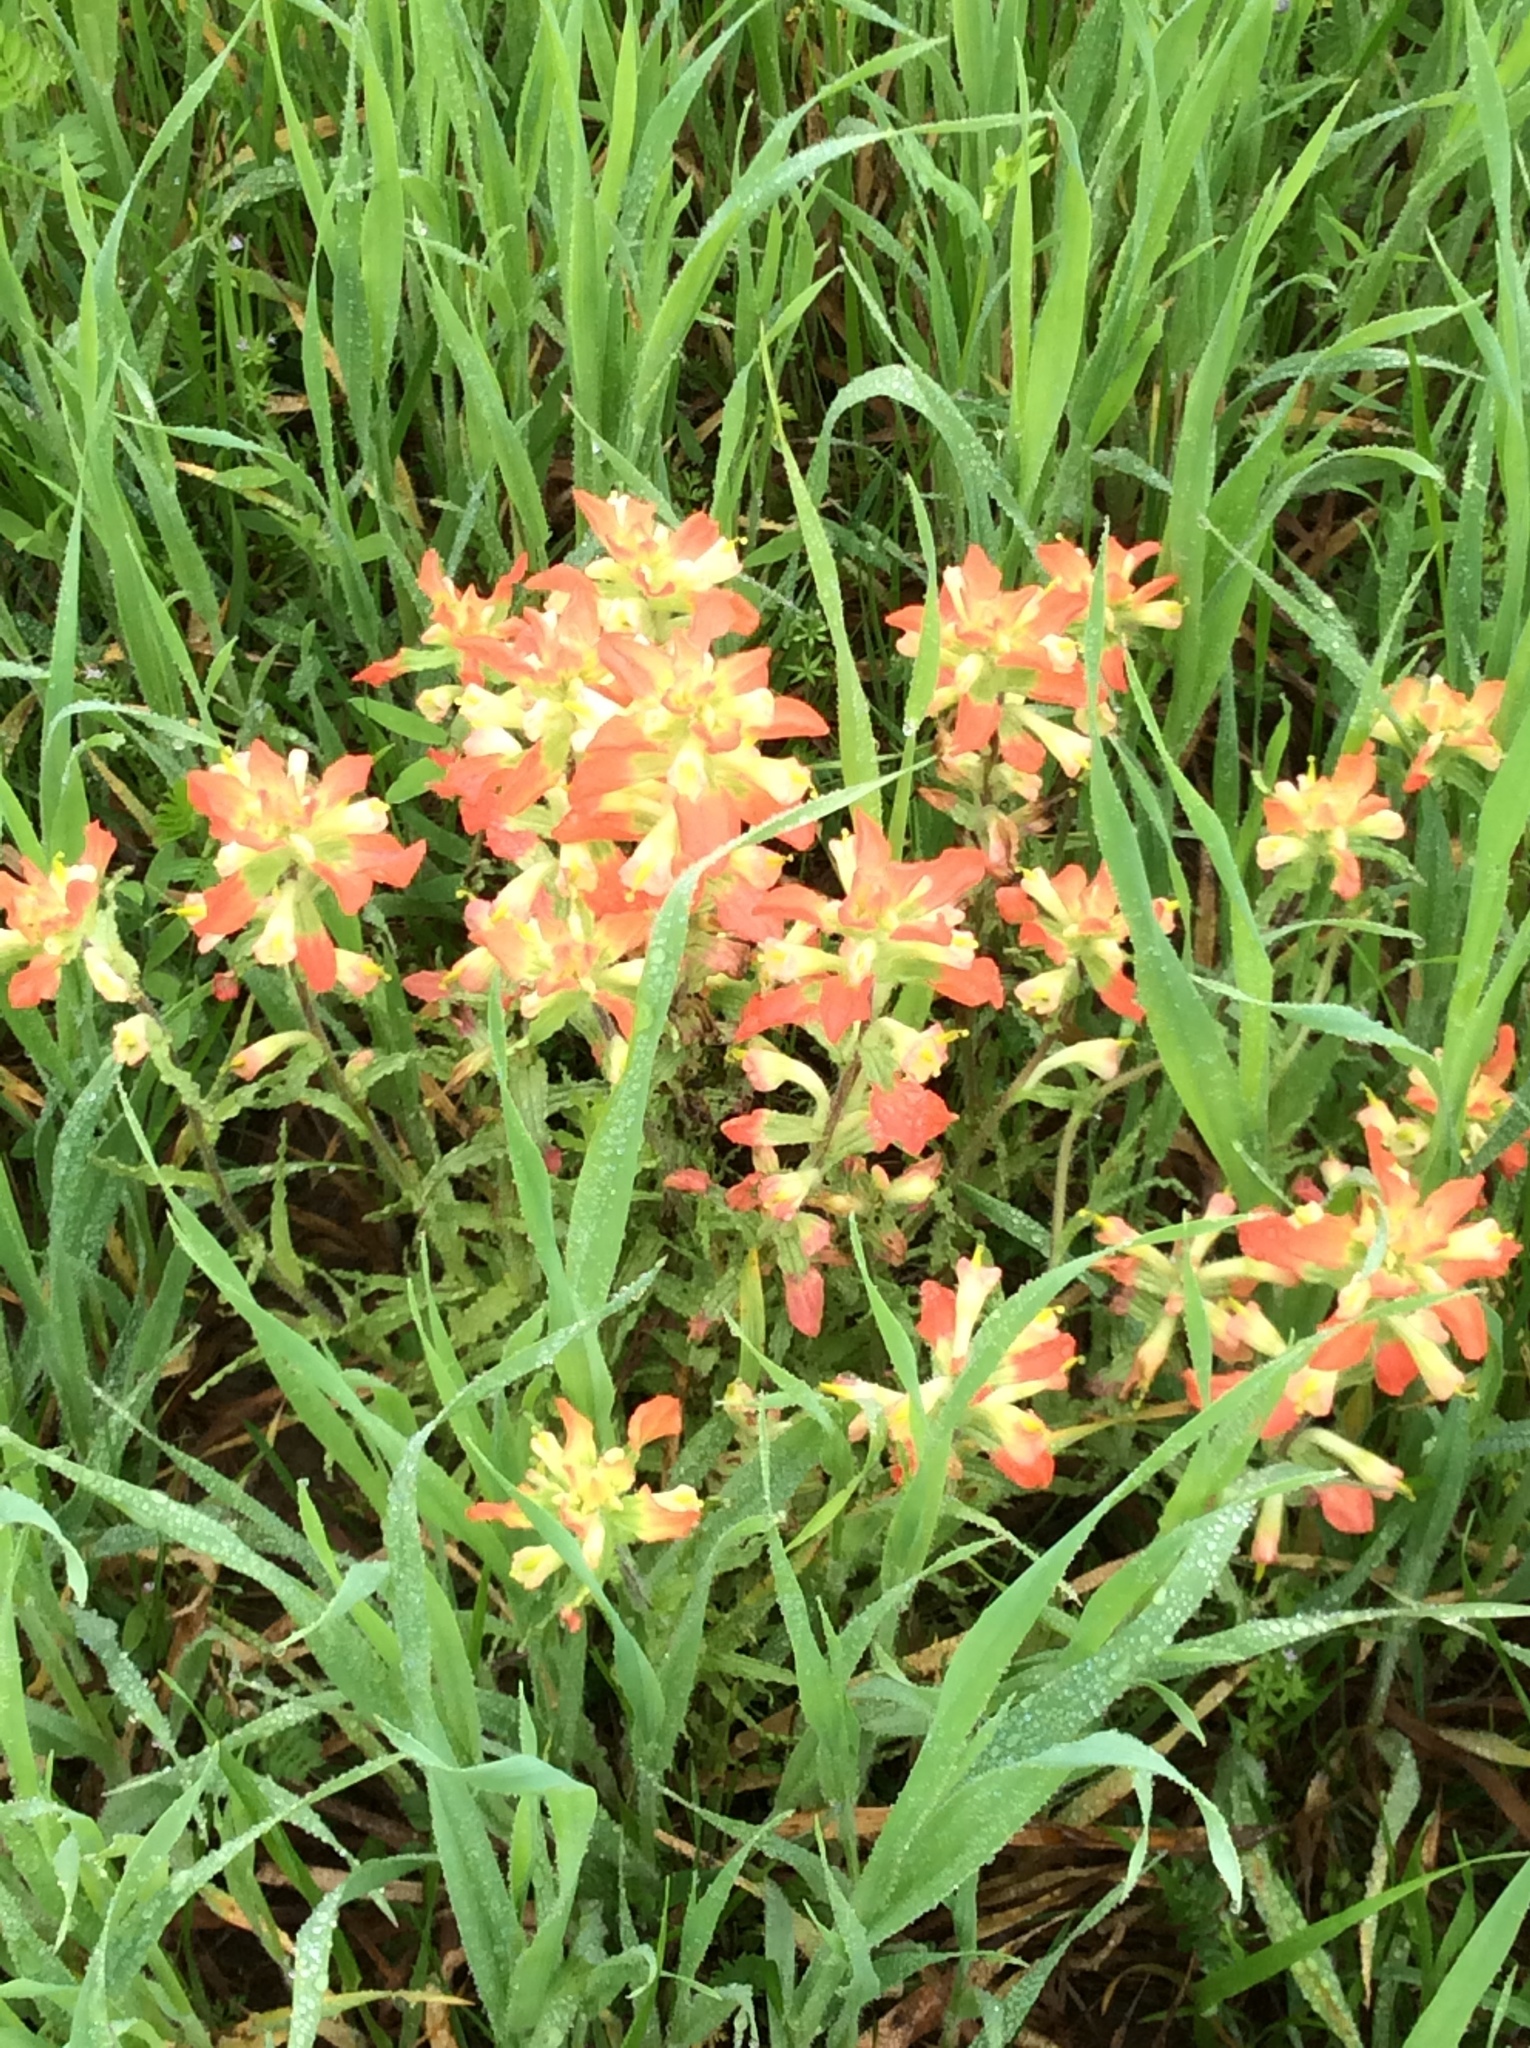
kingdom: Plantae
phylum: Tracheophyta
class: Magnoliopsida
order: Lamiales
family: Orobanchaceae
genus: Castilleja
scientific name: Castilleja indivisa
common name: Texas paintbrush
